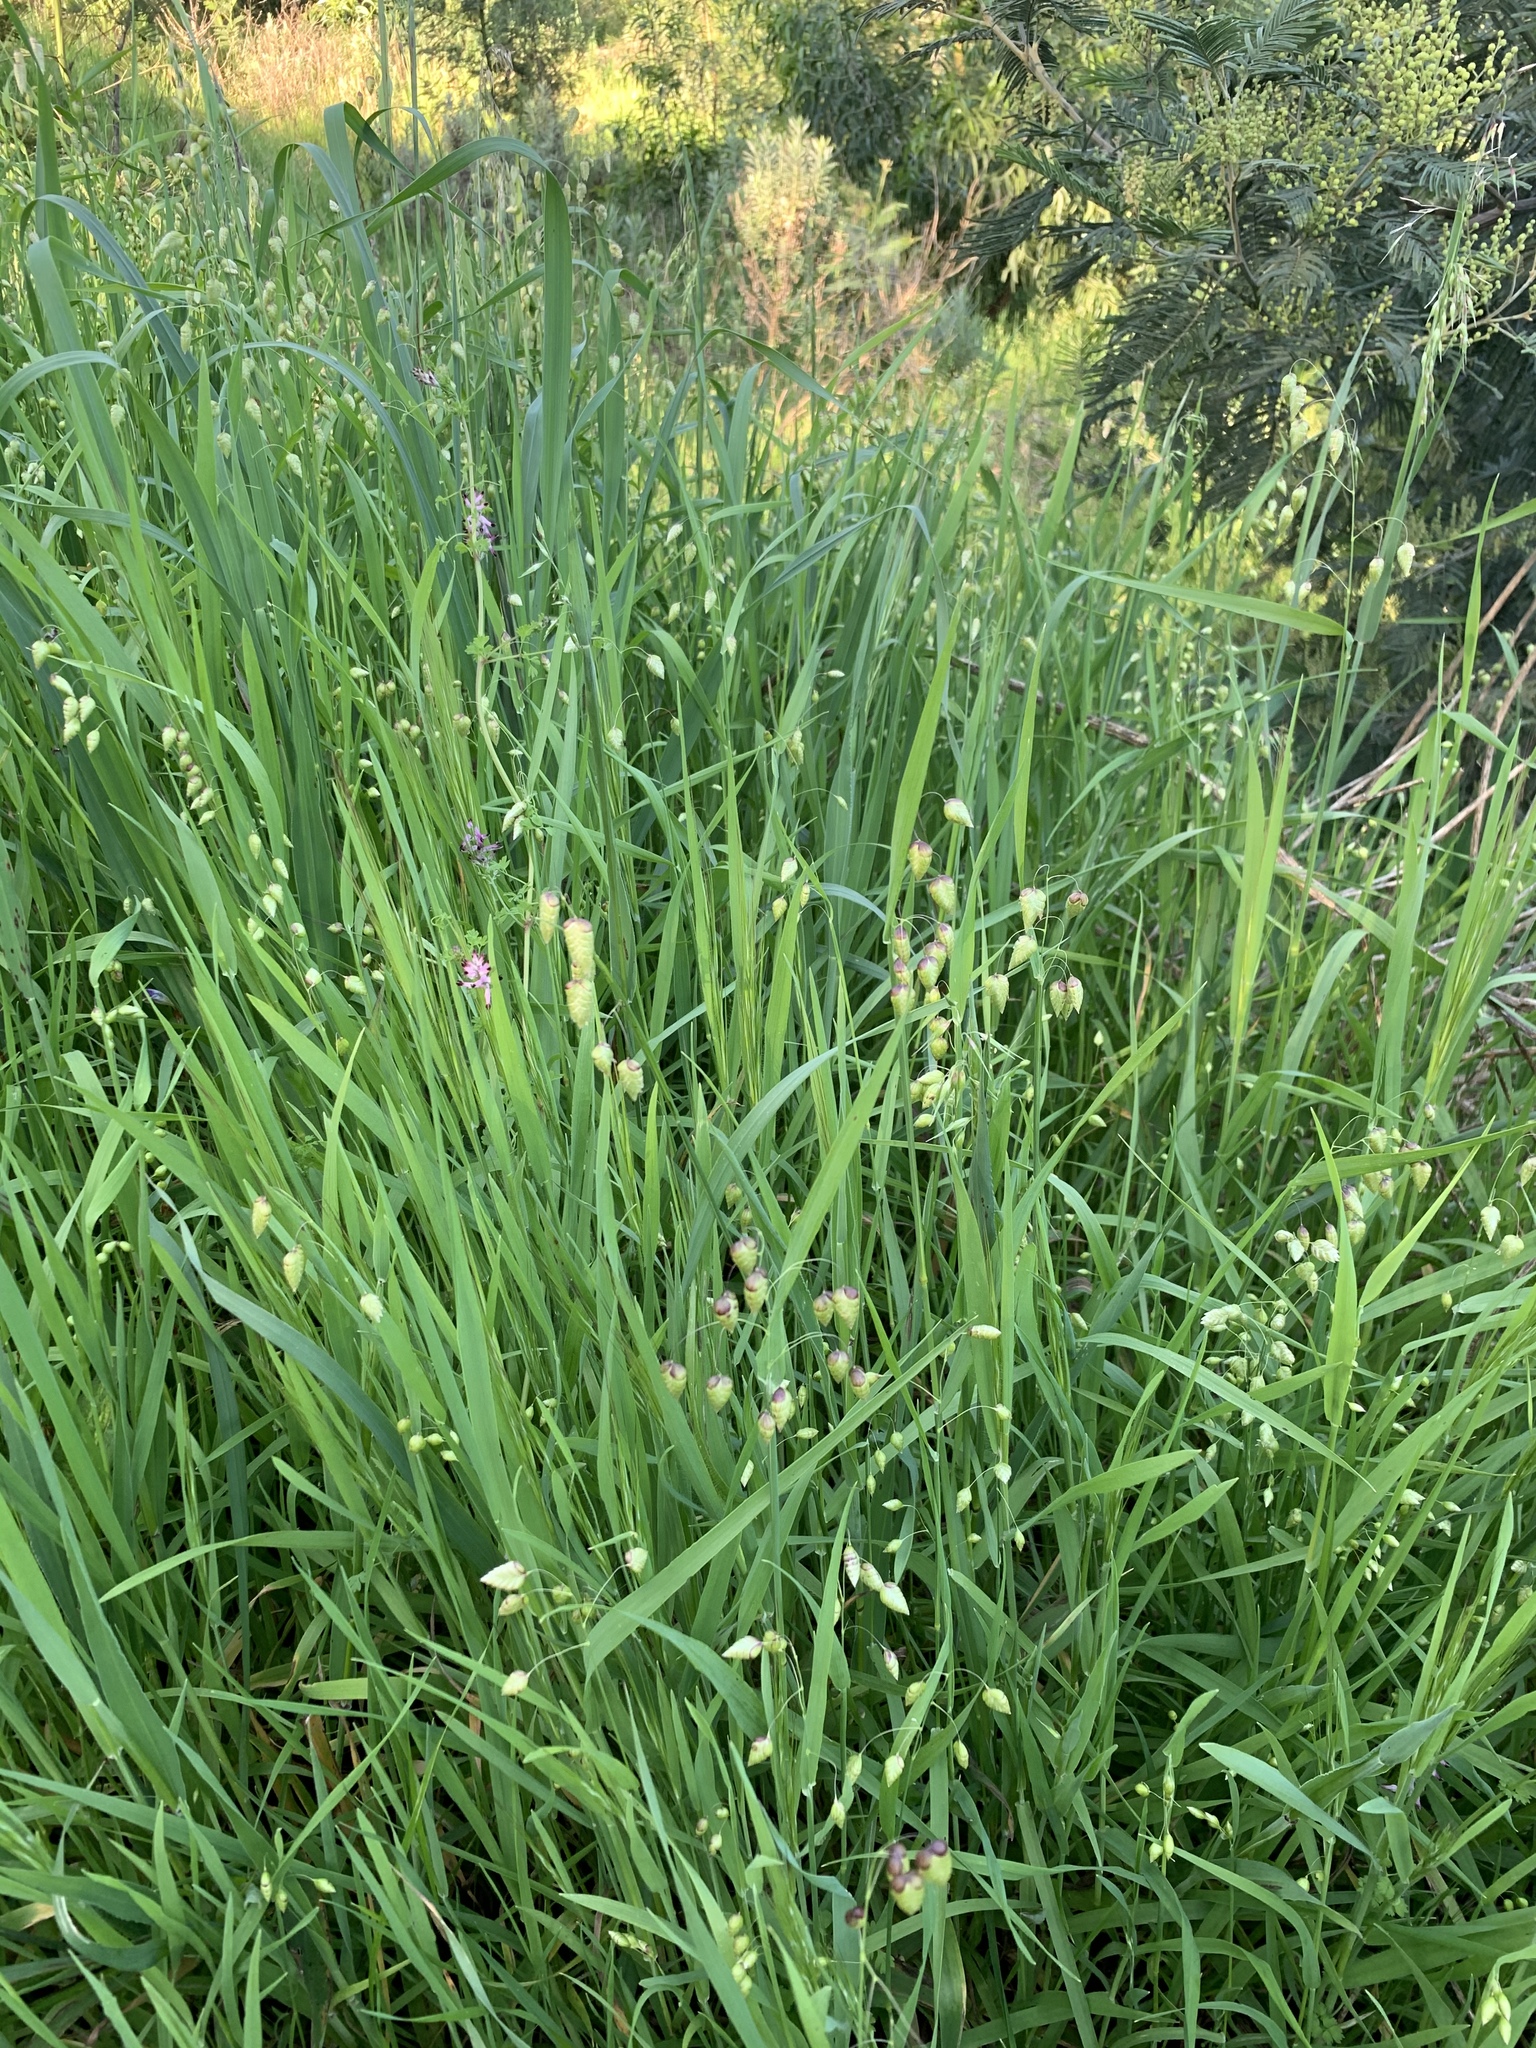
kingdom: Plantae
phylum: Tracheophyta
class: Liliopsida
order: Poales
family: Poaceae
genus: Briza
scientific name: Briza maxima
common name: Big quakinggrass
